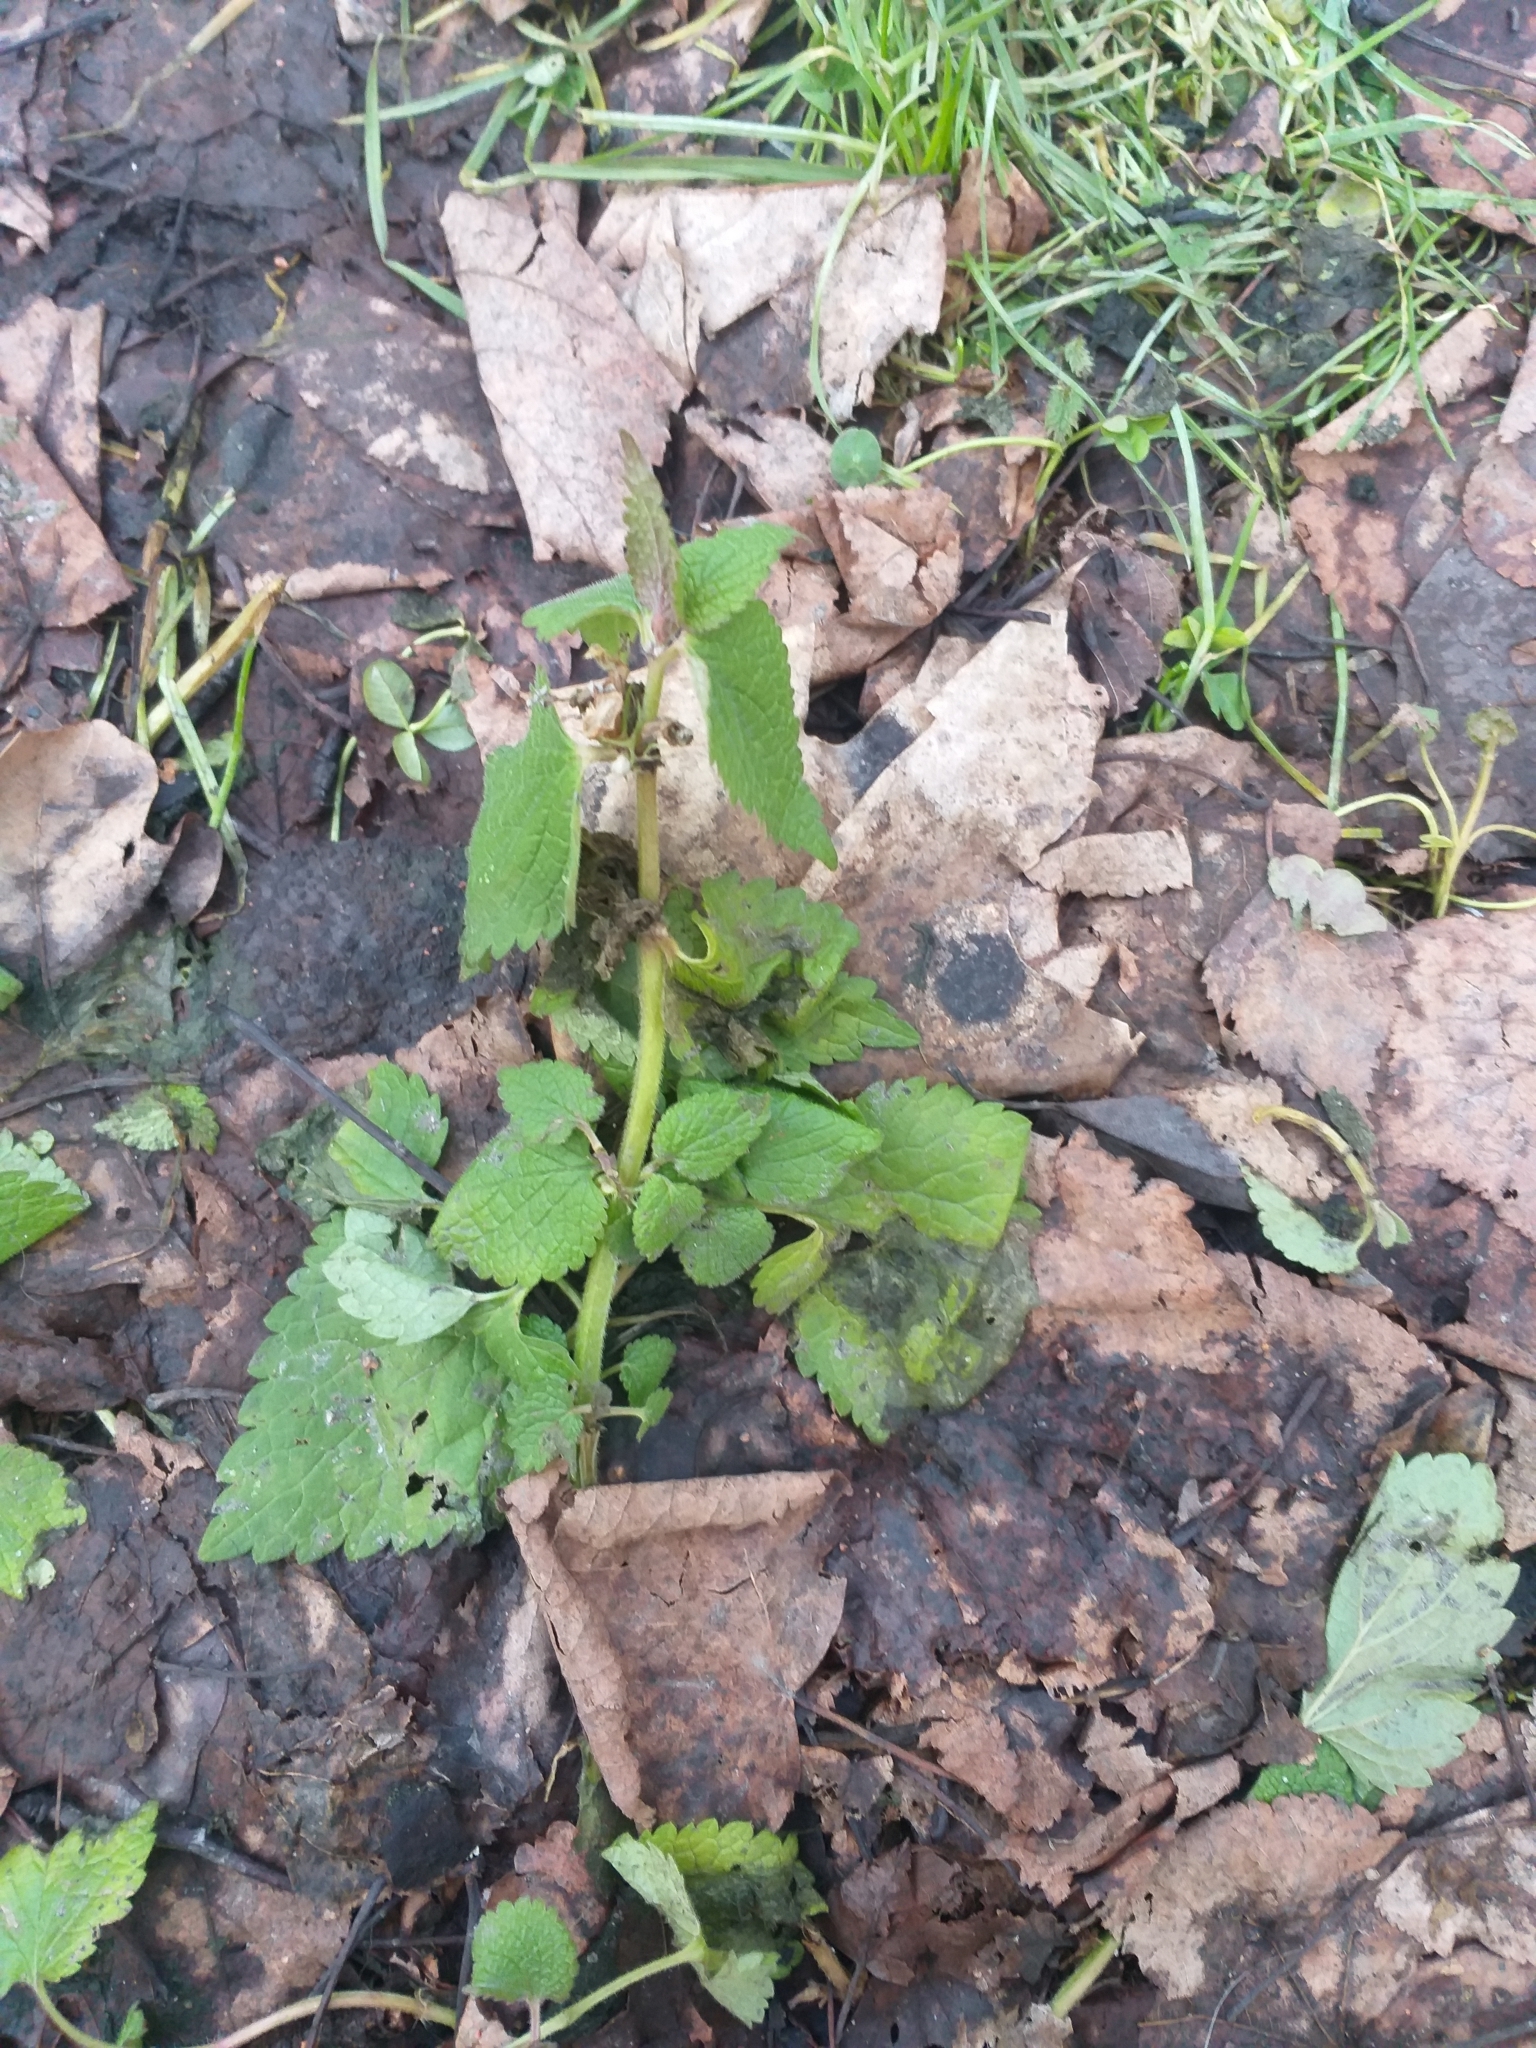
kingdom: Plantae
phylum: Tracheophyta
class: Magnoliopsida
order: Lamiales
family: Lamiaceae
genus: Lamium
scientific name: Lamium album
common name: White dead-nettle
